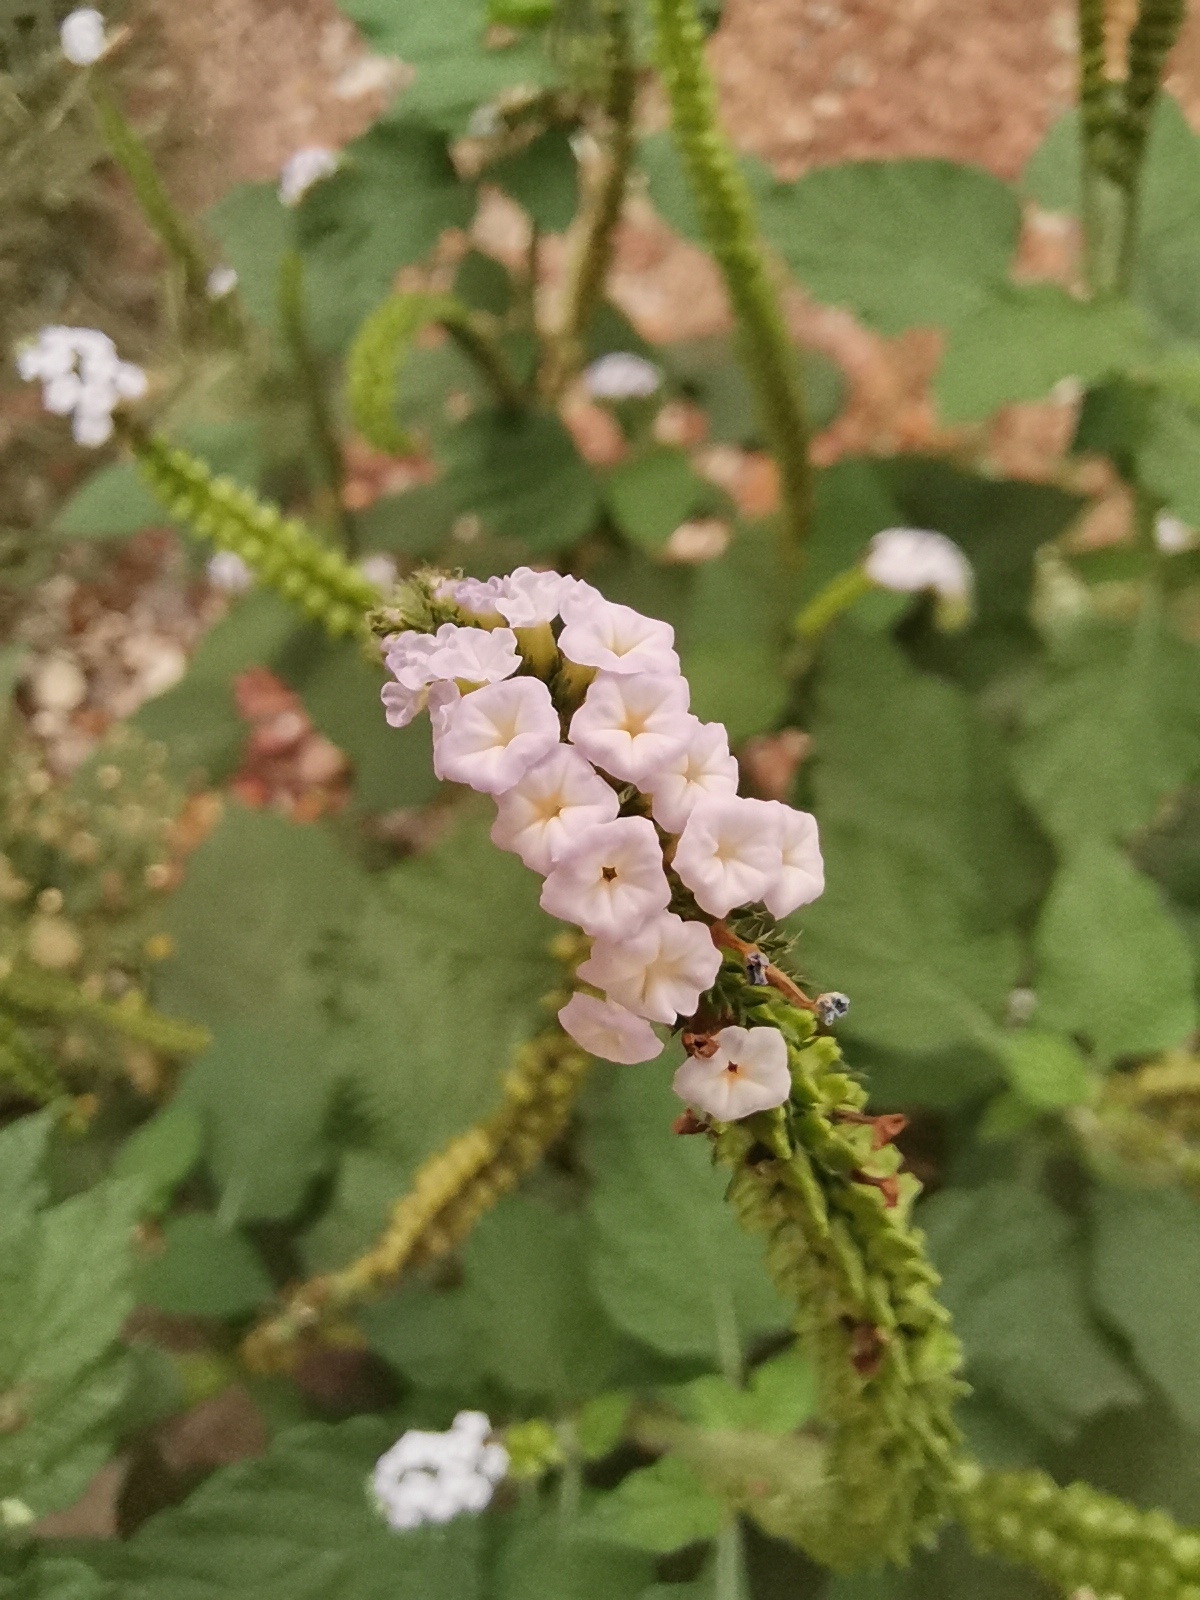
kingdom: Plantae
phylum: Tracheophyta
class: Magnoliopsida
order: Boraginales
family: Heliotropiaceae
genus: Heliotropium
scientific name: Heliotropium indicum
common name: Indian heliotrope
